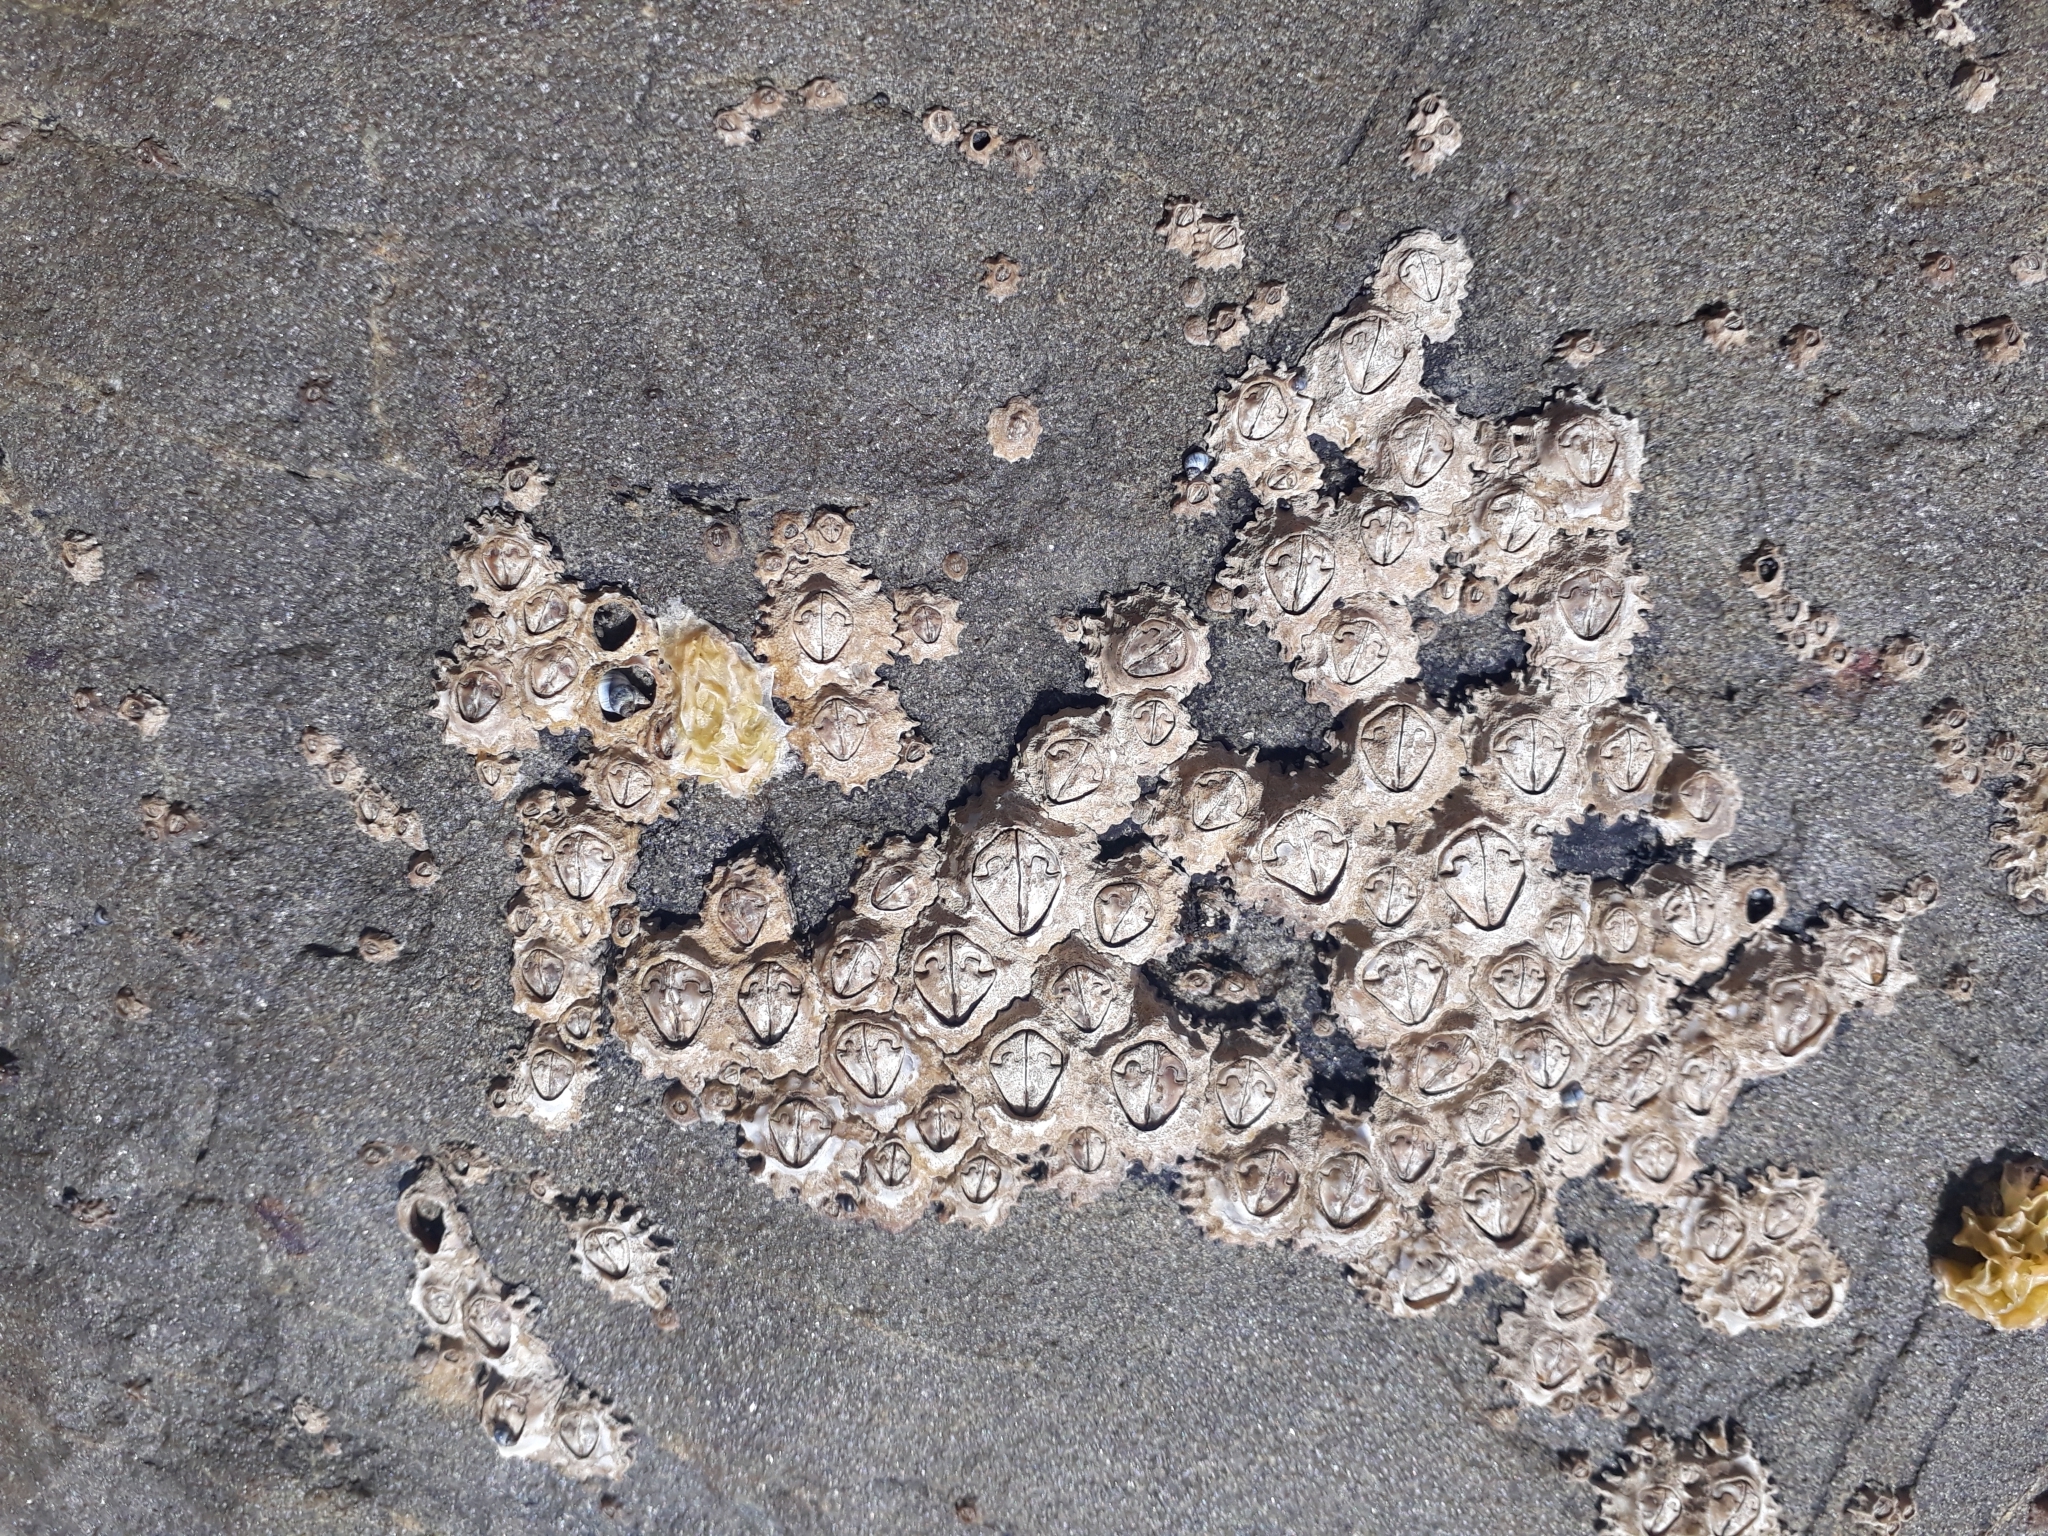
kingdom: Animalia
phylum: Arthropoda
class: Maxillopoda
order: Sessilia
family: Chthamalidae
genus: Chamaesipho
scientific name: Chamaesipho brunnea
